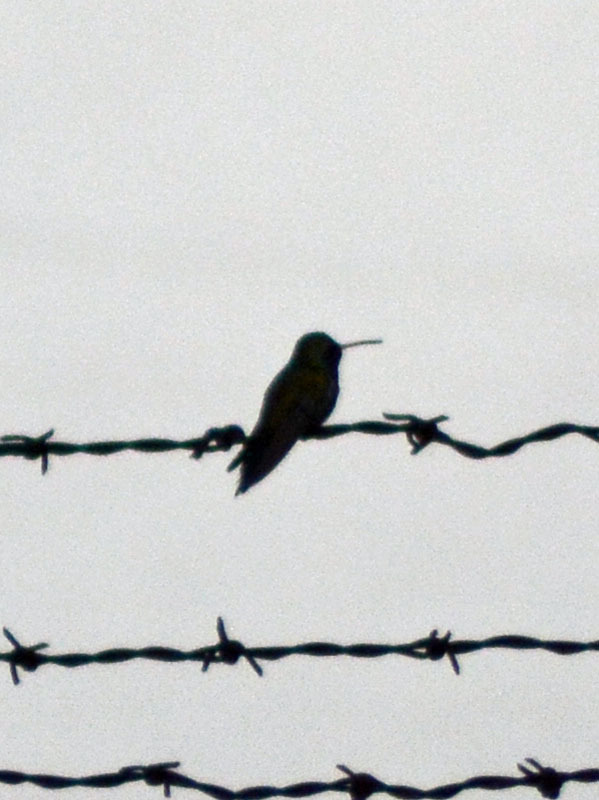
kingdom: Animalia
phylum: Chordata
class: Aves
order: Apodiformes
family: Trochilidae
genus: Cynanthus
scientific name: Cynanthus latirostris
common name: Broad-billed hummingbird
